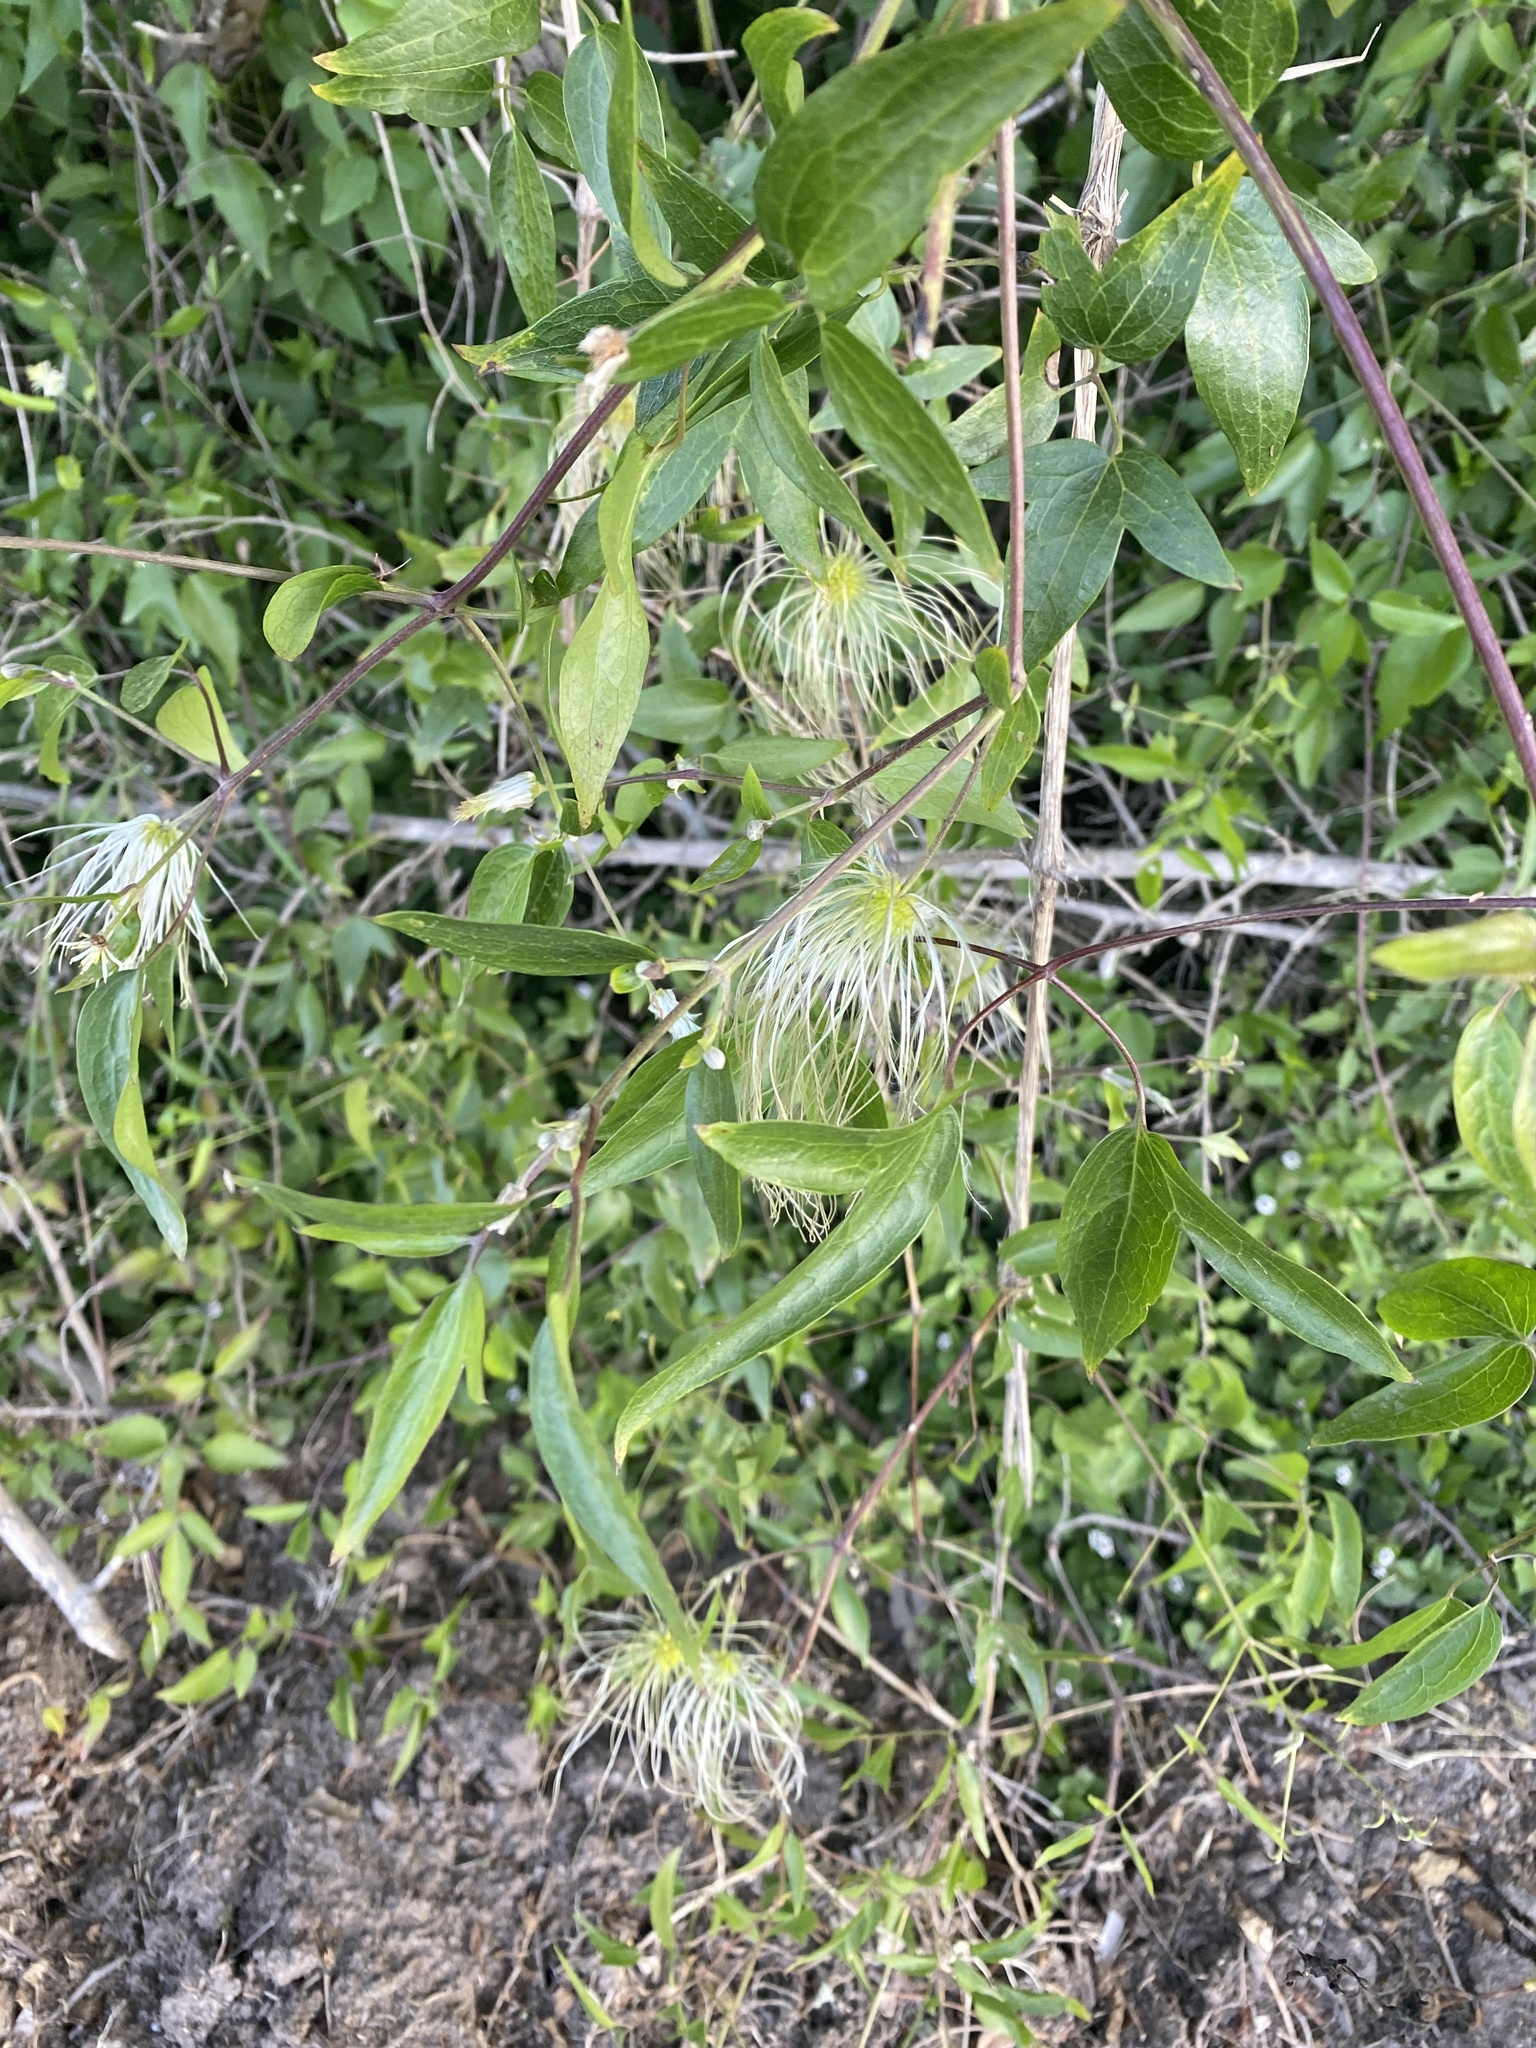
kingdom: Plantae
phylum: Tracheophyta
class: Magnoliopsida
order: Ranunculales
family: Ranunculaceae
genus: Clematis
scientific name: Clematis montevidensis
